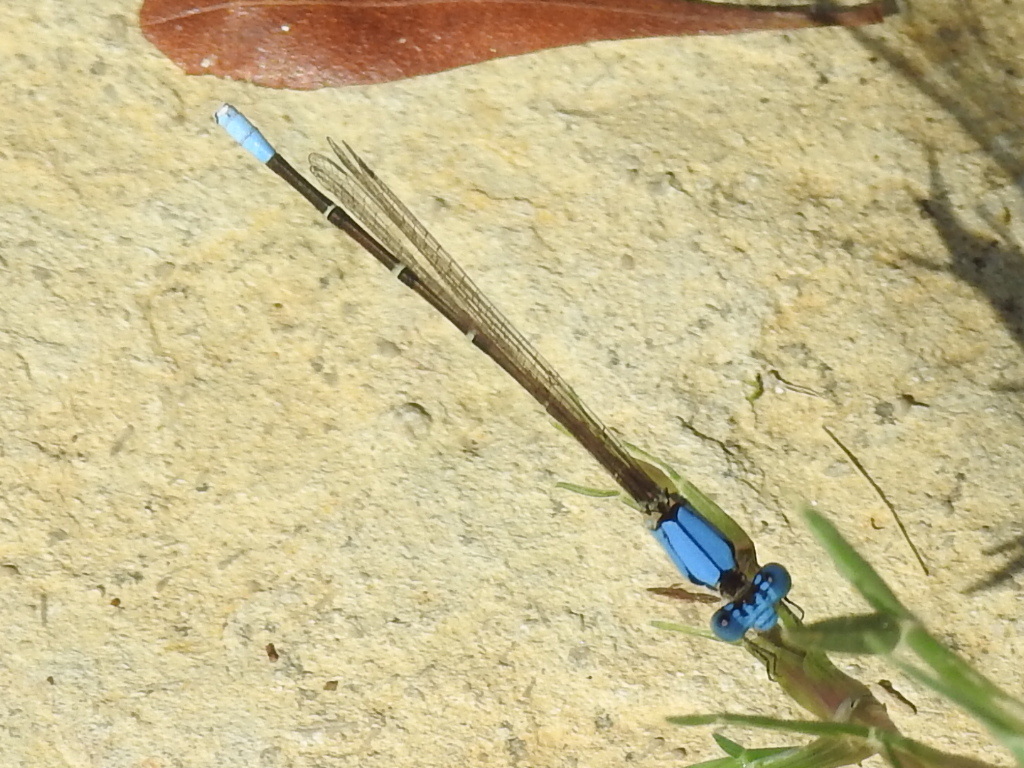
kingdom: Animalia
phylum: Arthropoda
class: Insecta
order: Odonata
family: Coenagrionidae
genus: Argia
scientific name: Argia apicalis
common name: Blue-fronted dancer
